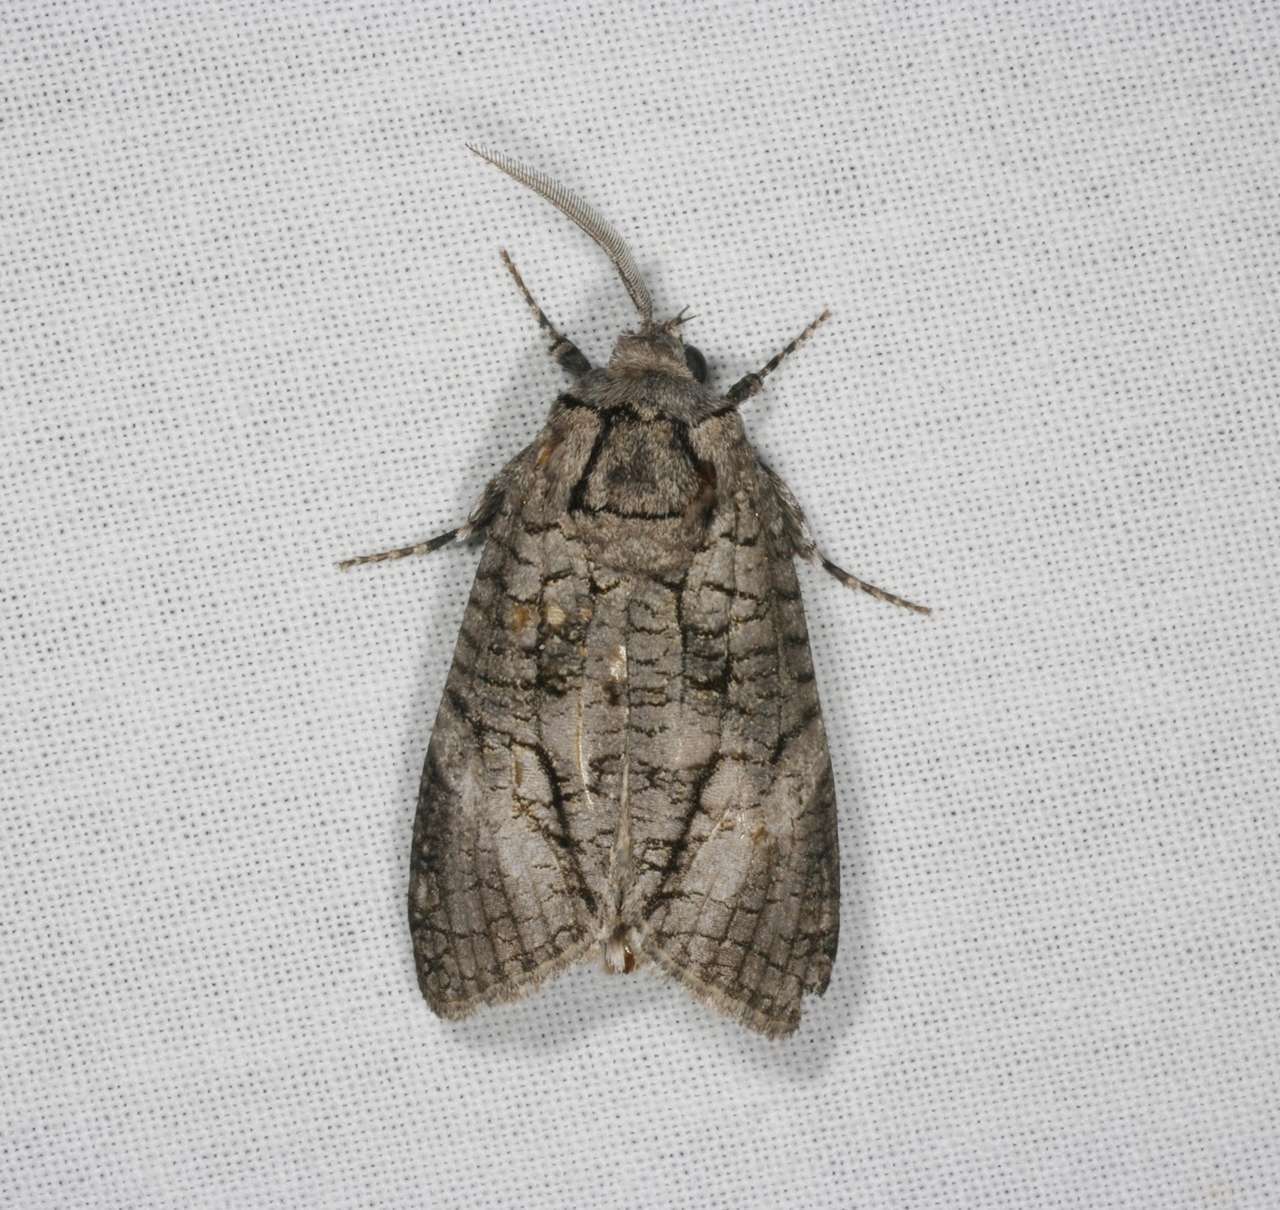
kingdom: Animalia
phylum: Arthropoda
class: Insecta
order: Lepidoptera
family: Cossidae
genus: Culama
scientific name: Culama australis
